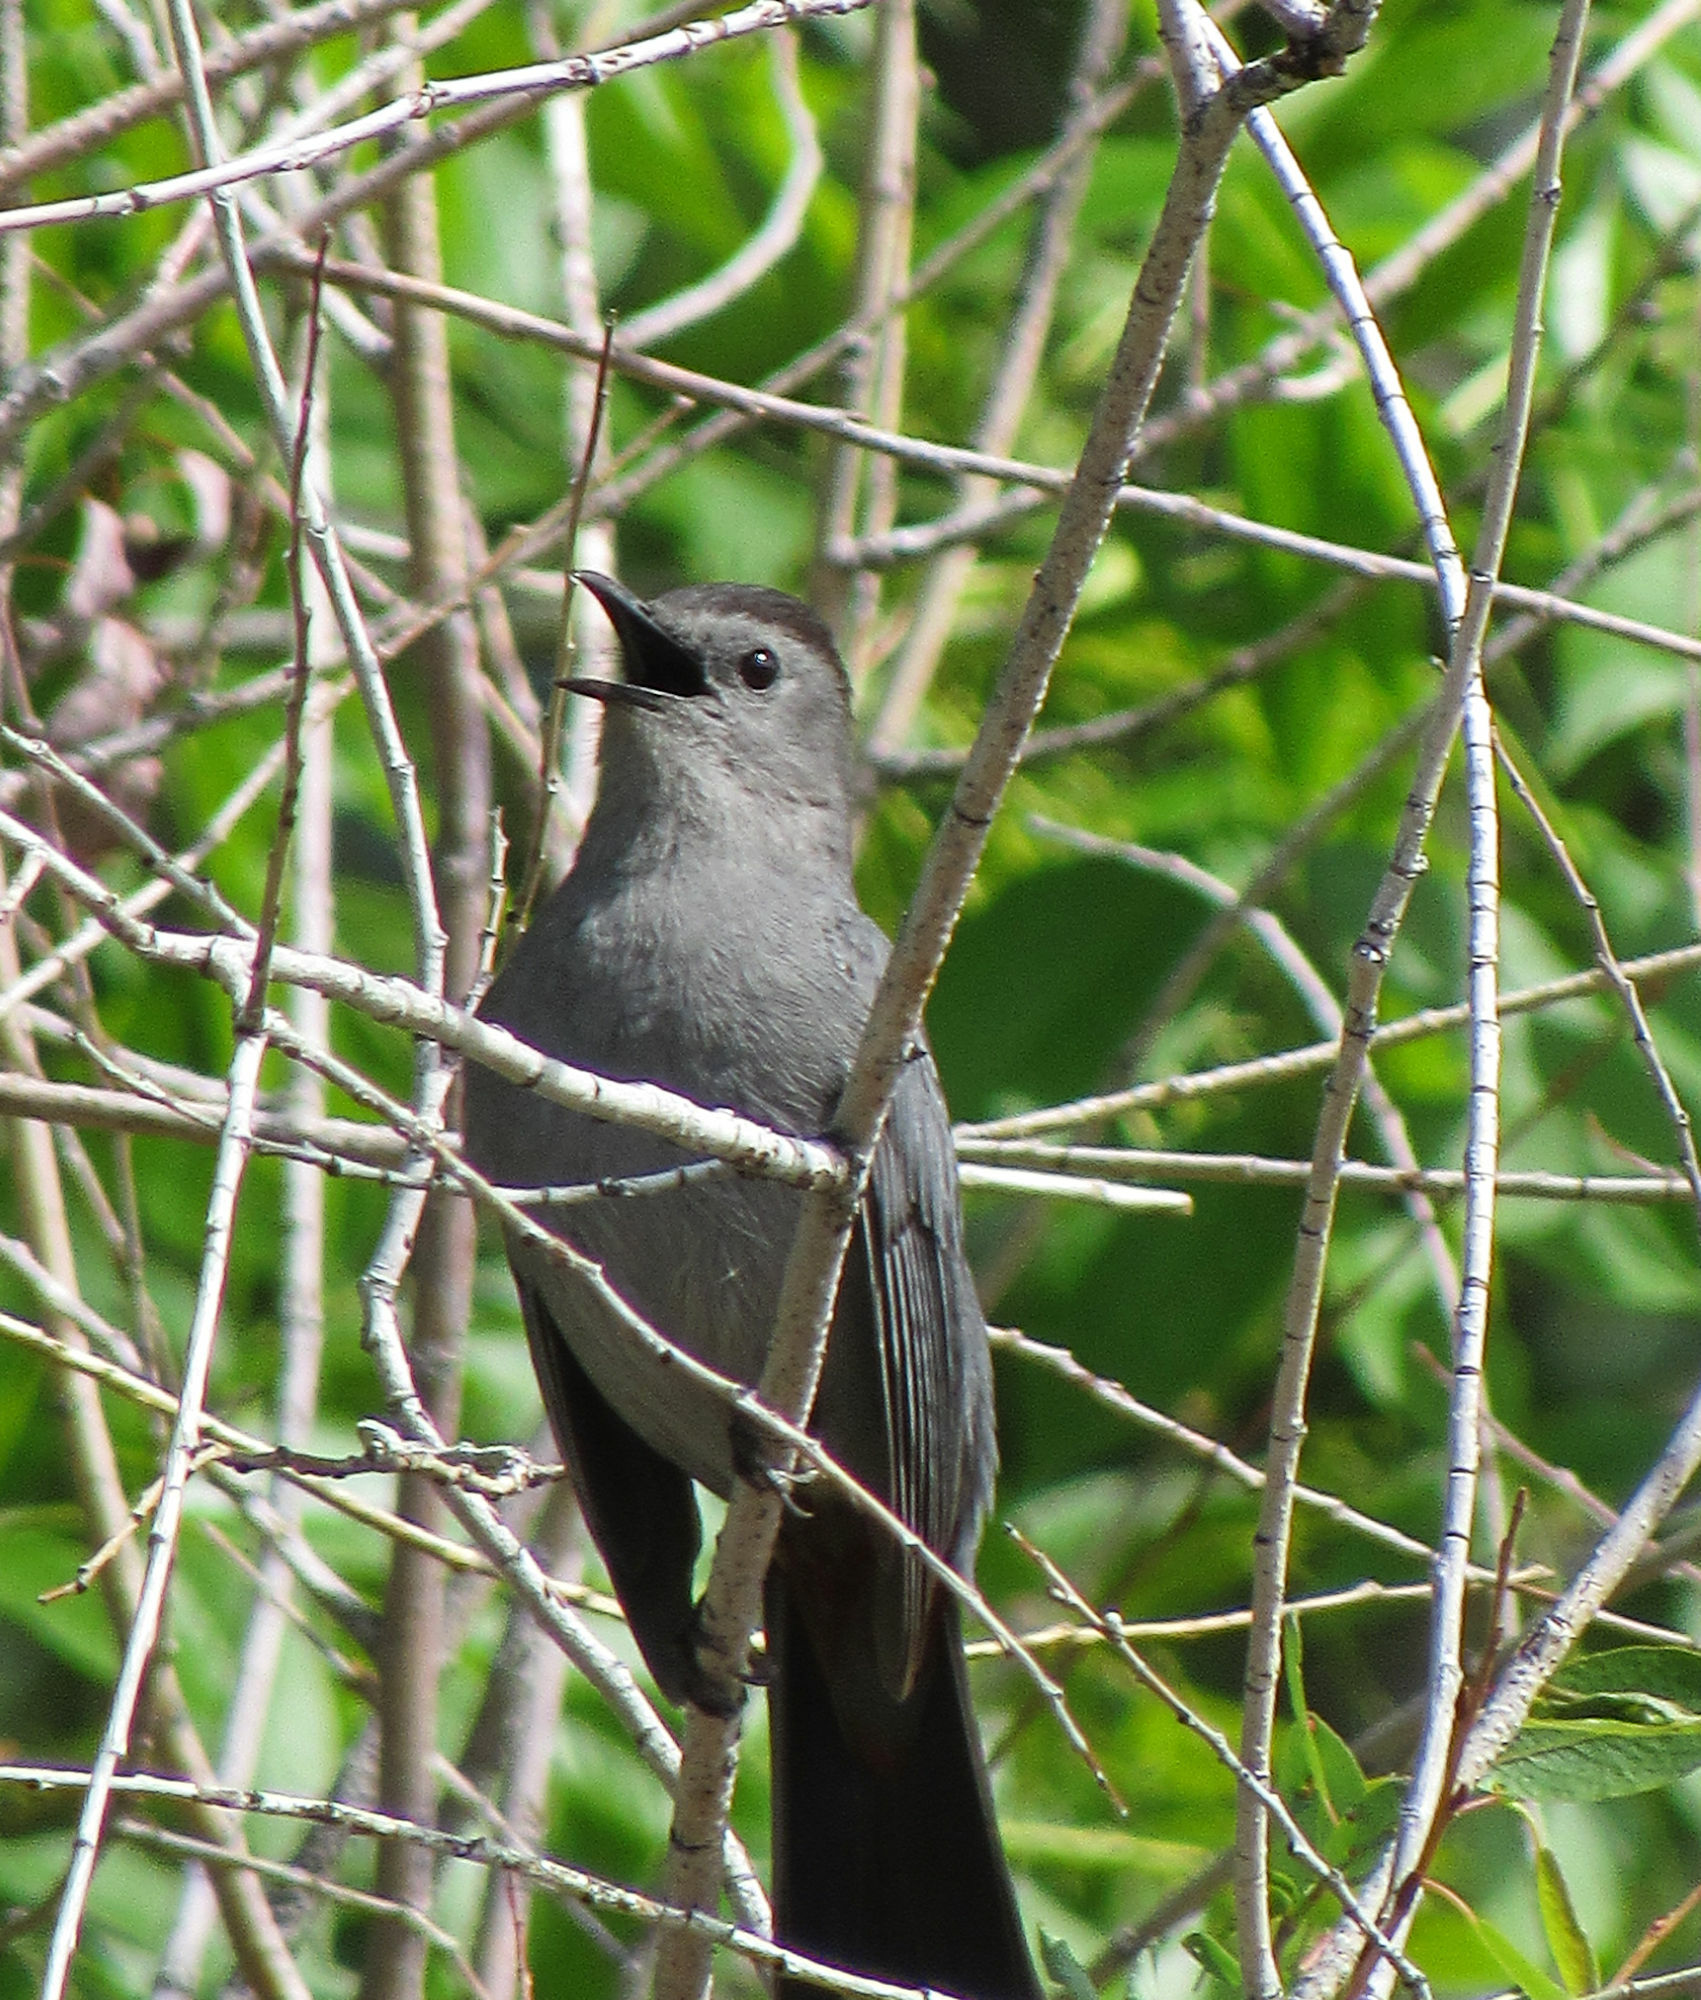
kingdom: Animalia
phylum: Chordata
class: Aves
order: Passeriformes
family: Mimidae
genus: Dumetella
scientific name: Dumetella carolinensis
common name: Gray catbird
